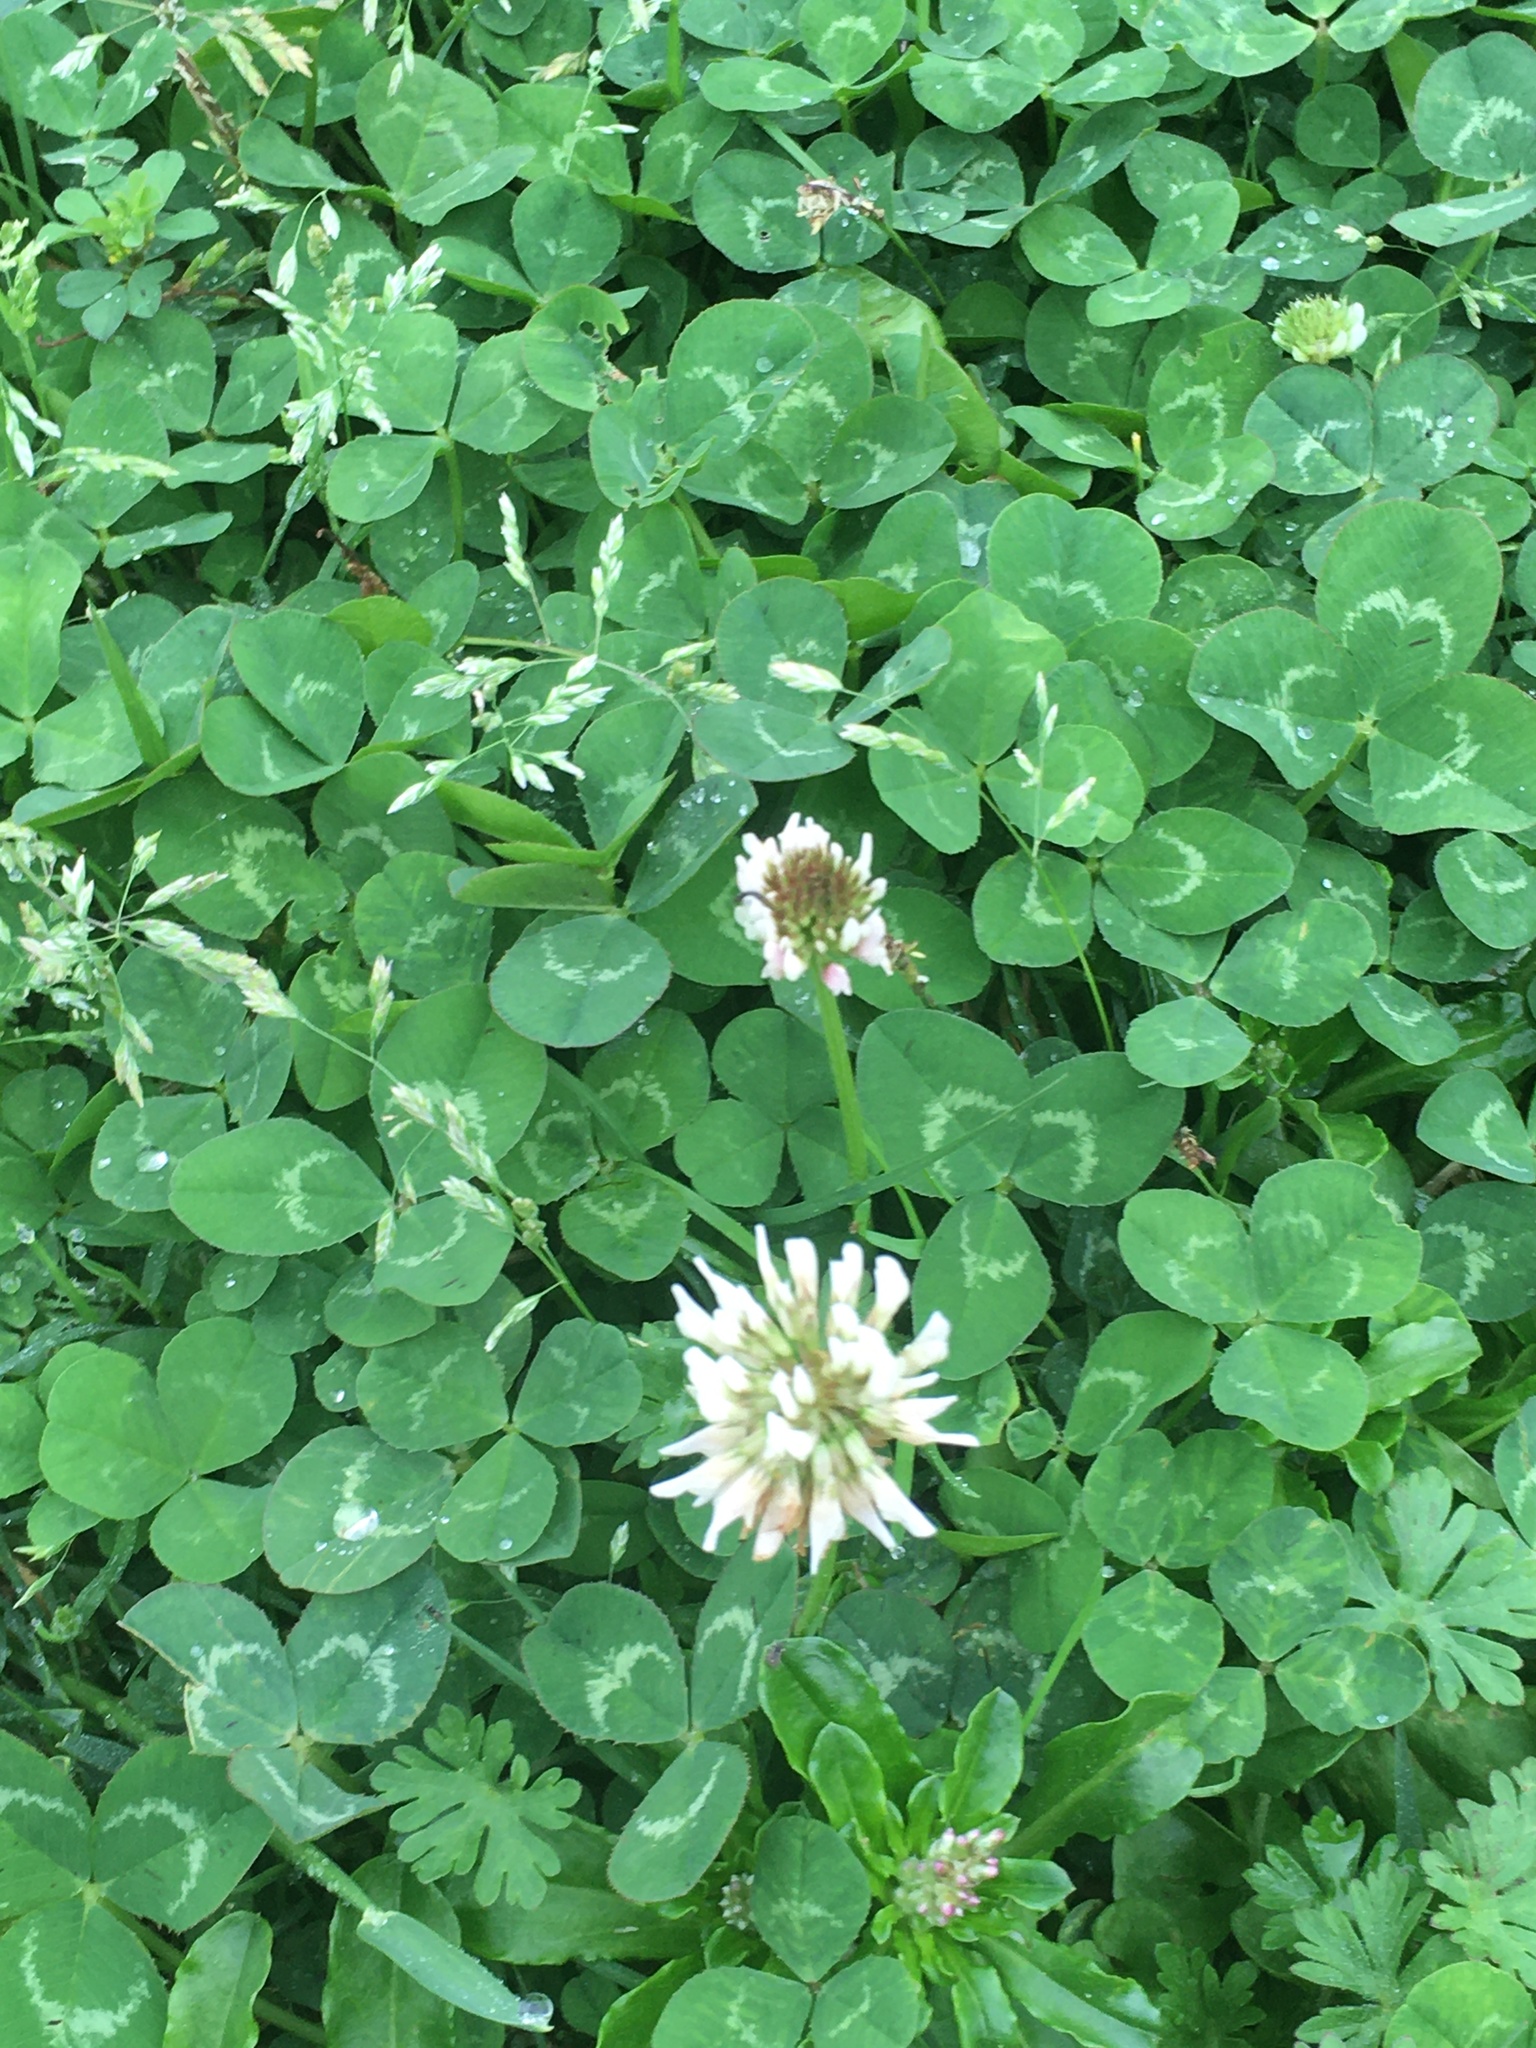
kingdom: Plantae
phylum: Tracheophyta
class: Magnoliopsida
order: Fabales
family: Fabaceae
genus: Trifolium
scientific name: Trifolium repens
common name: White clover
